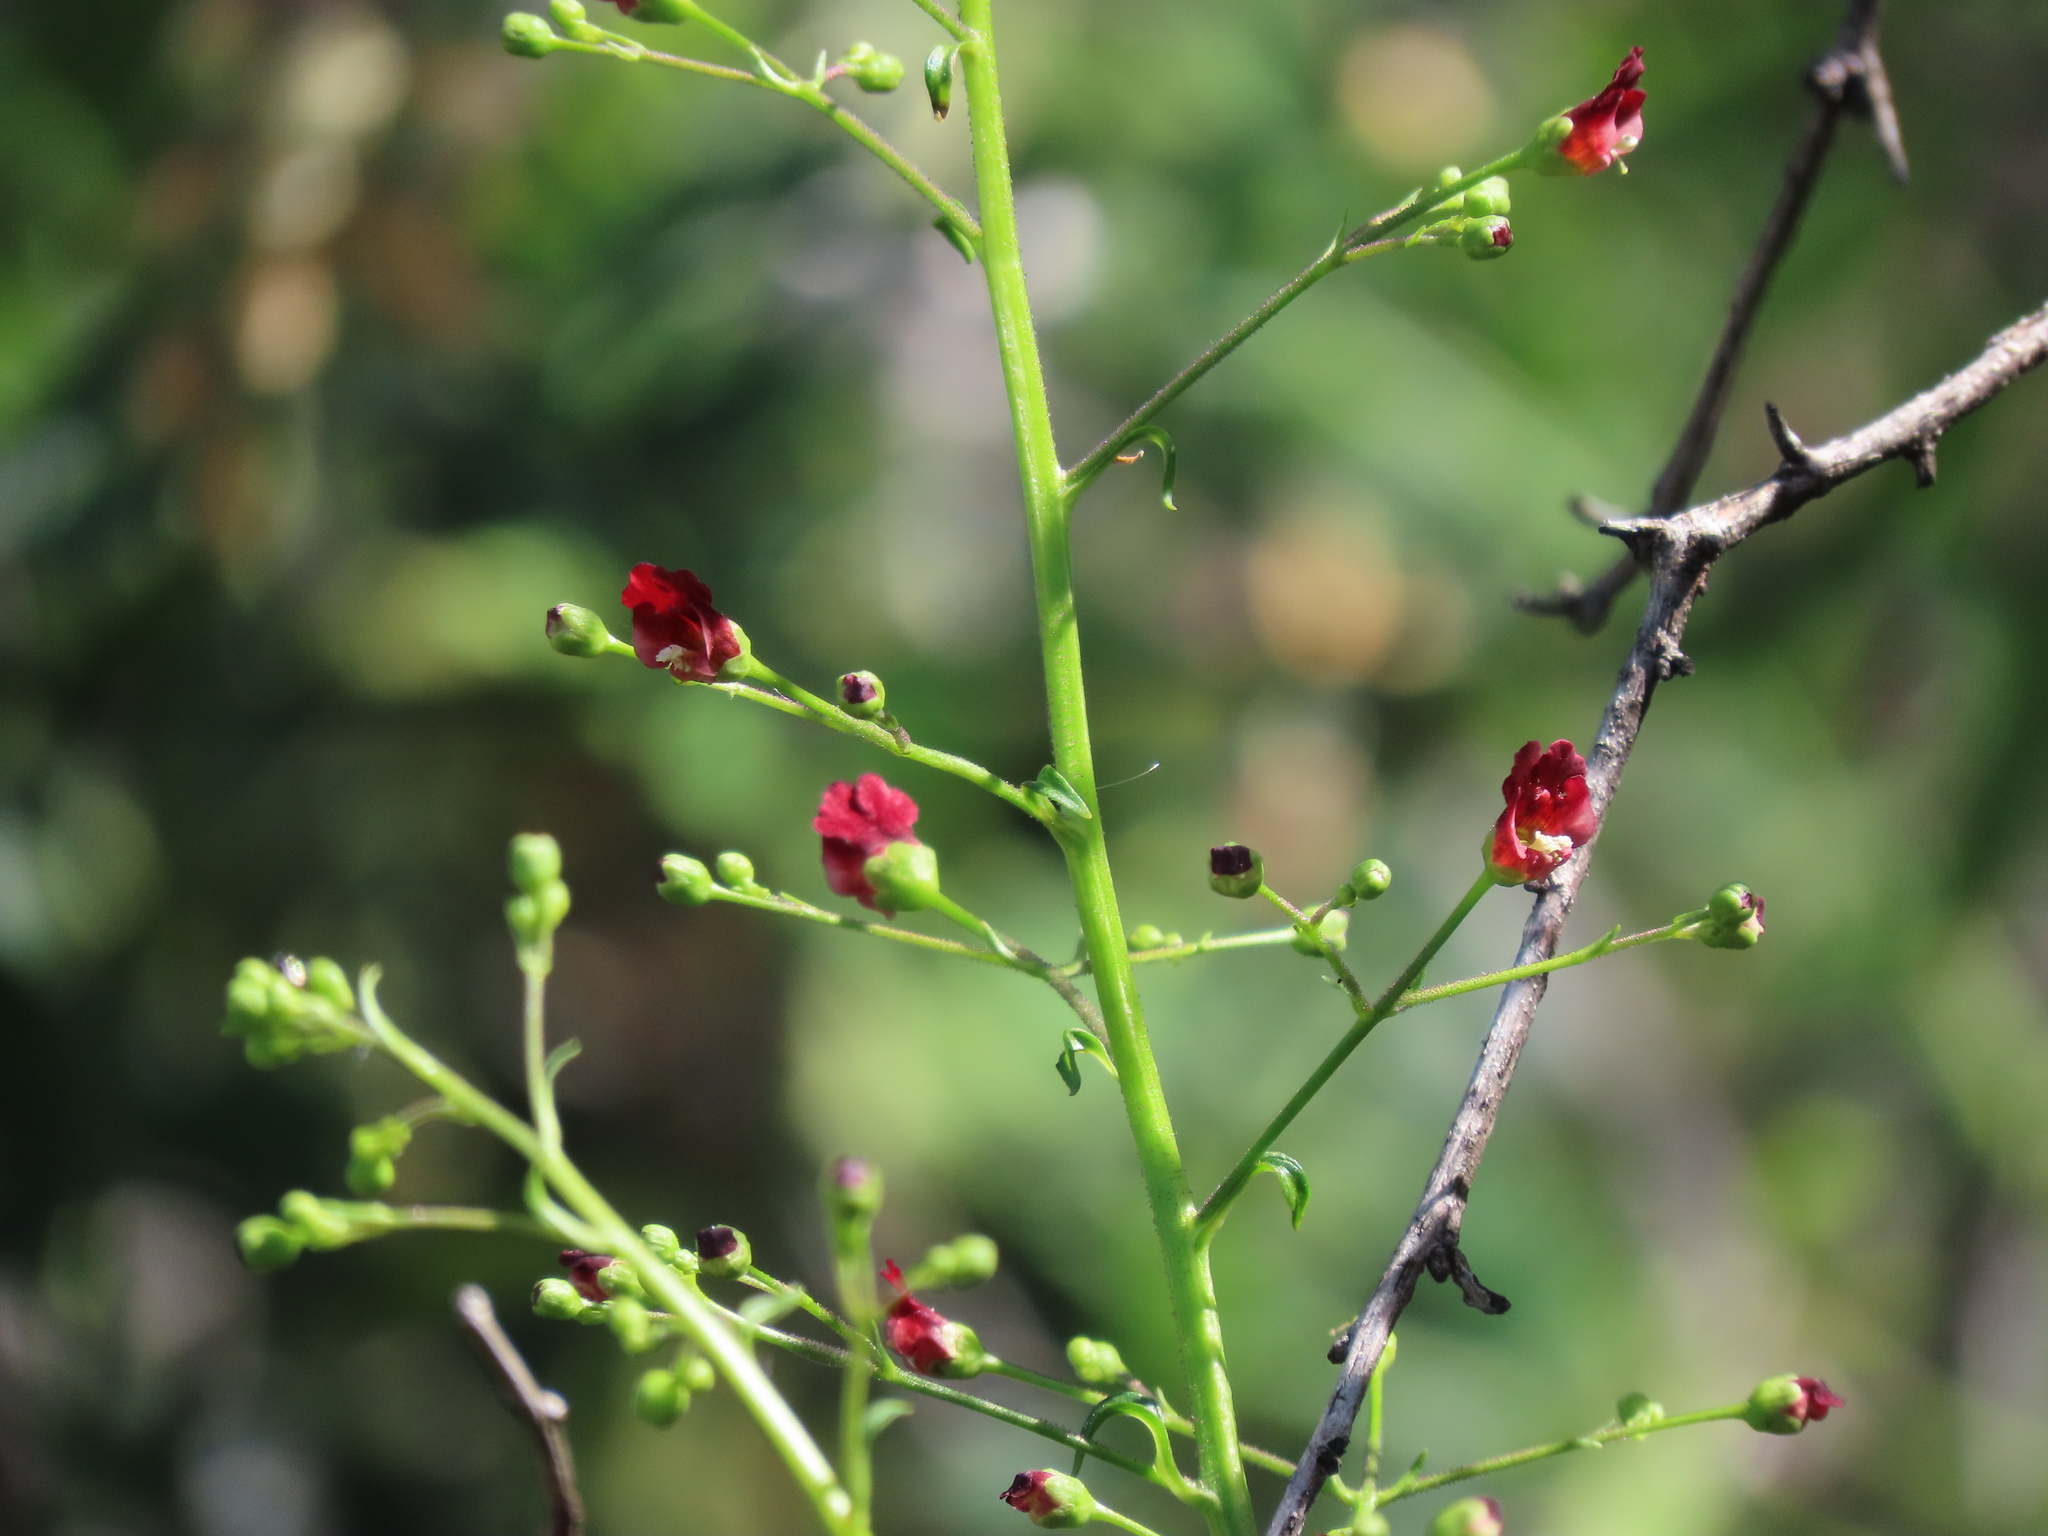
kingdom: Plantae
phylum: Tracheophyta
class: Magnoliopsida
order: Lamiales
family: Scrophulariaceae
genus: Scrophularia
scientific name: Scrophularia californica
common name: California figwort
